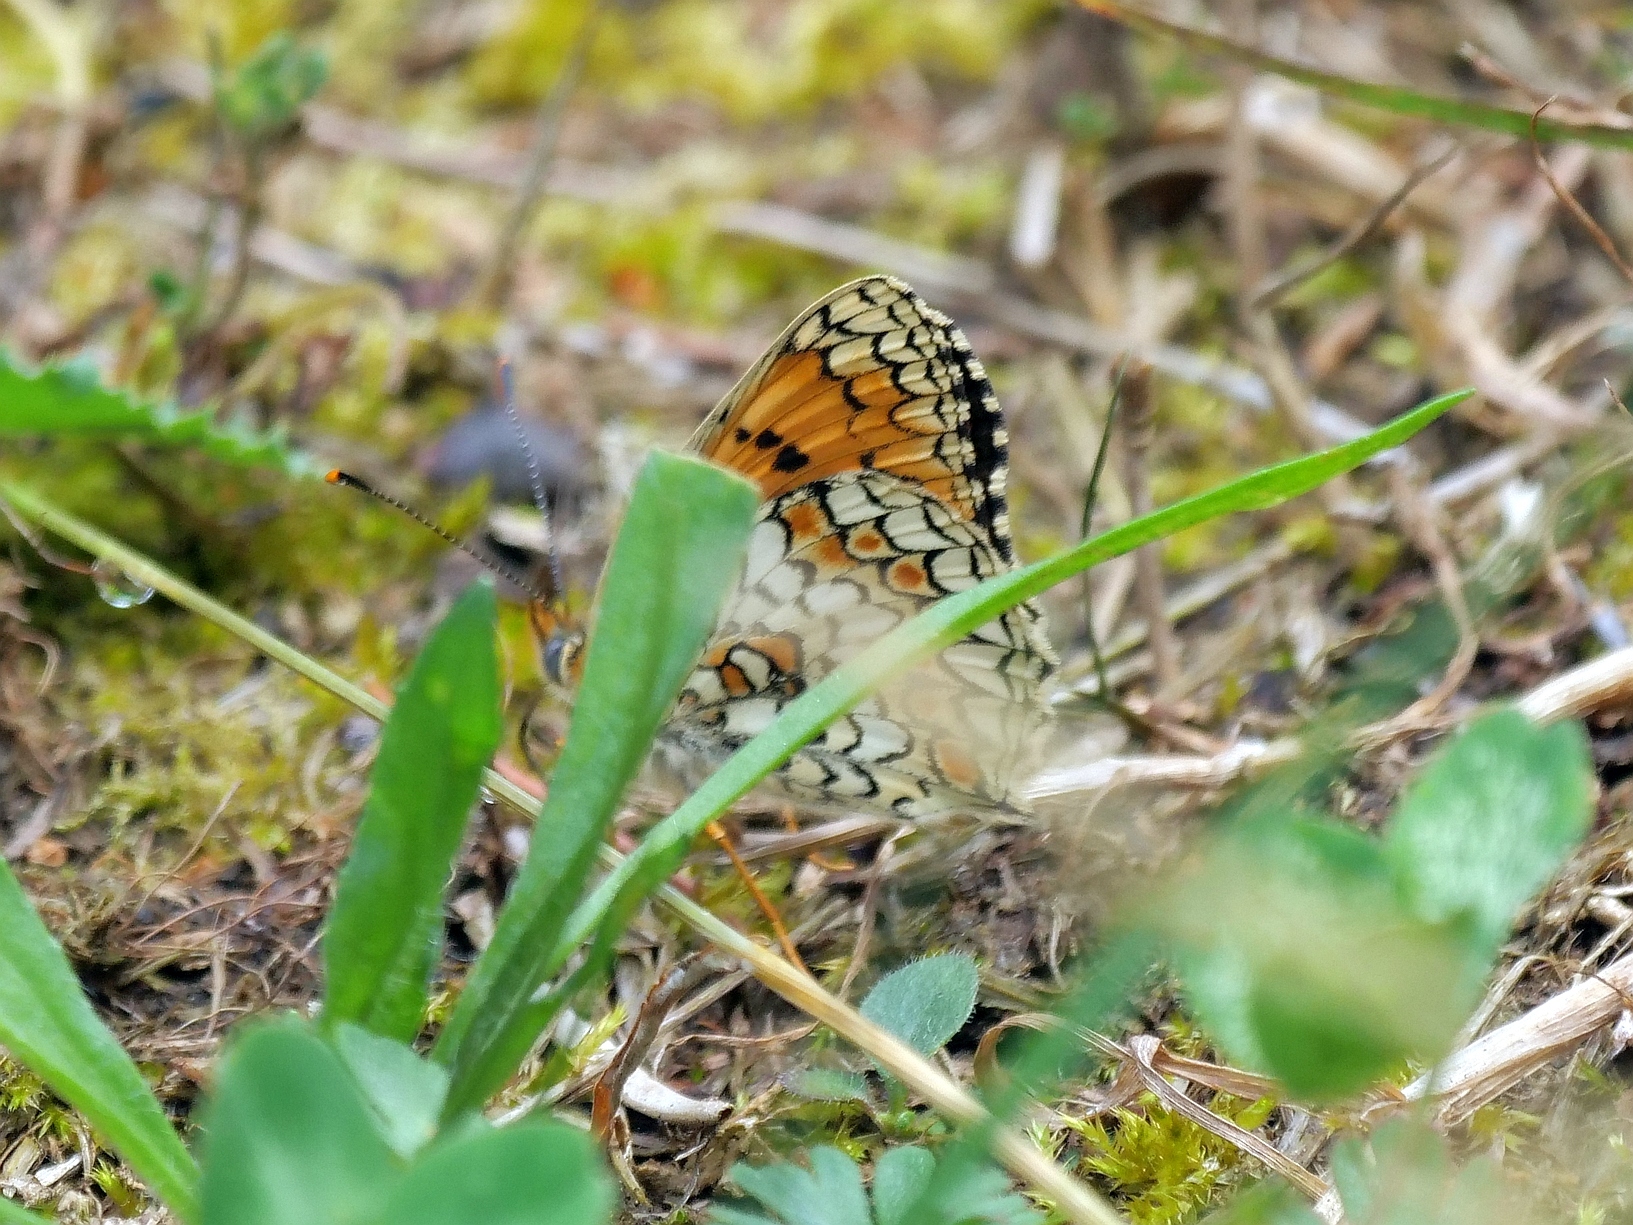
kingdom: Animalia
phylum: Arthropoda
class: Insecta
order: Lepidoptera
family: Nymphalidae
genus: Melitaea
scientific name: Melitaea phoebe
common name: Knapweed fritillary
